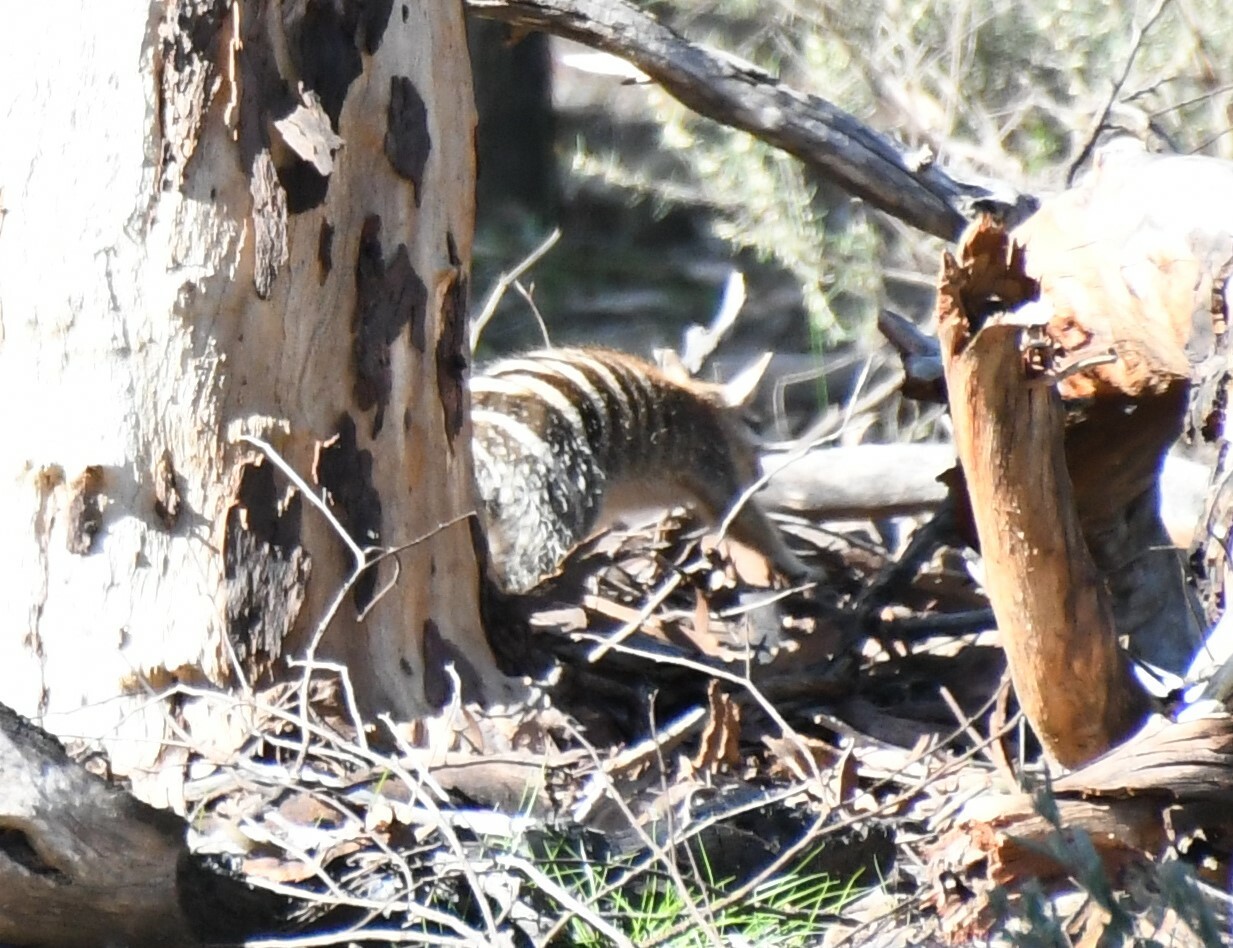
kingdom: Animalia
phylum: Chordata
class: Mammalia
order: Dasyuromorphia
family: Myrmecobiidae
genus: Myrmecobius
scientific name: Myrmecobius fasciatus
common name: Numbat
